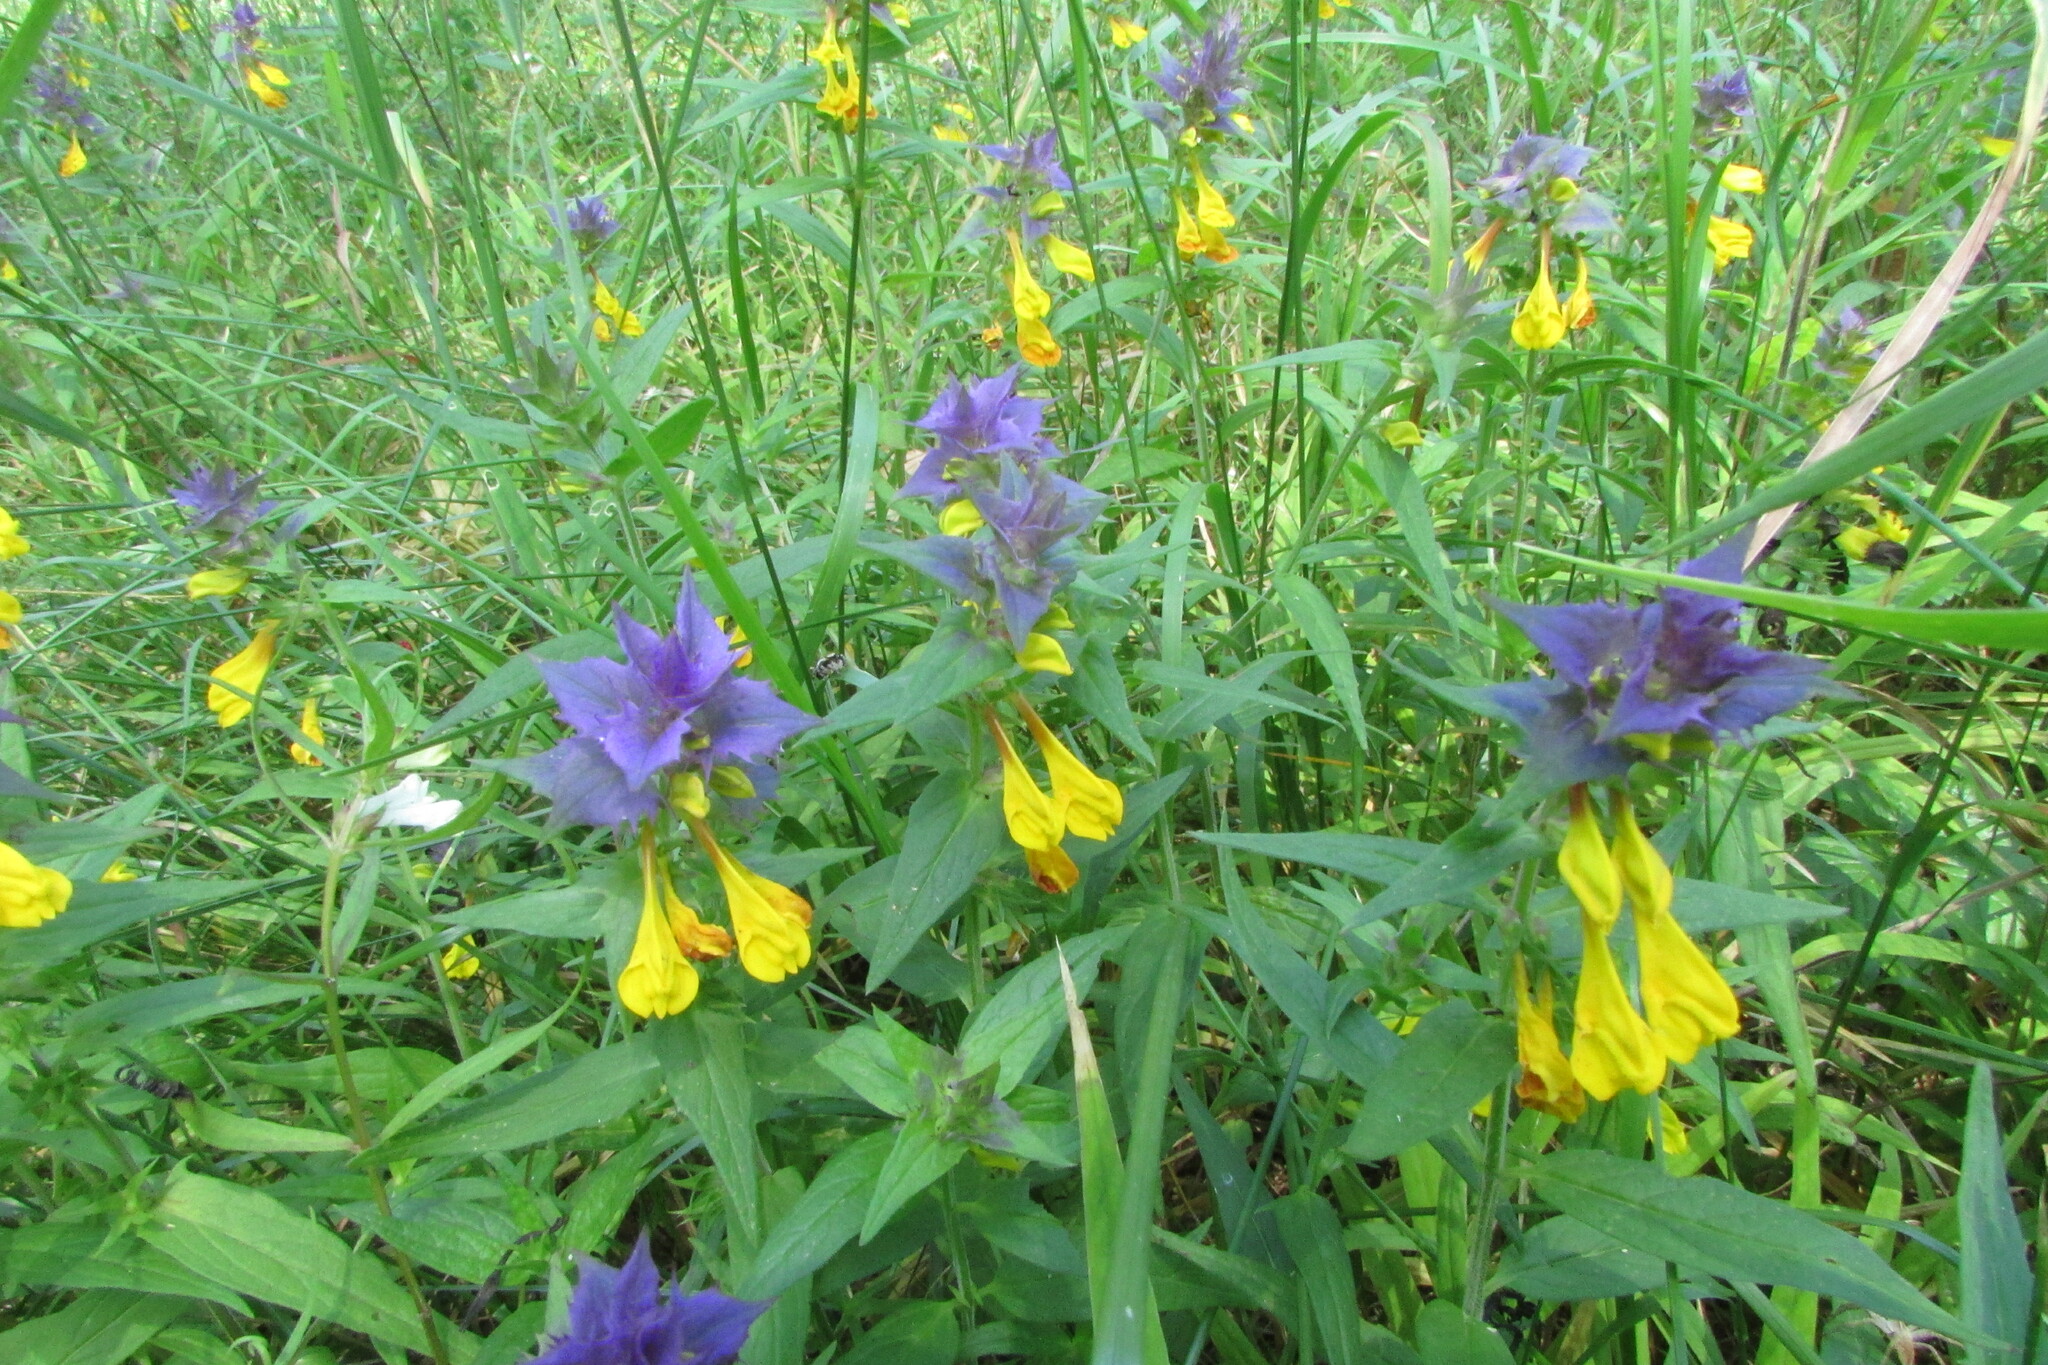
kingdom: Plantae
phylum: Tracheophyta
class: Magnoliopsida
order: Lamiales
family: Orobanchaceae
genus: Melampyrum
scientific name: Melampyrum nemorosum
